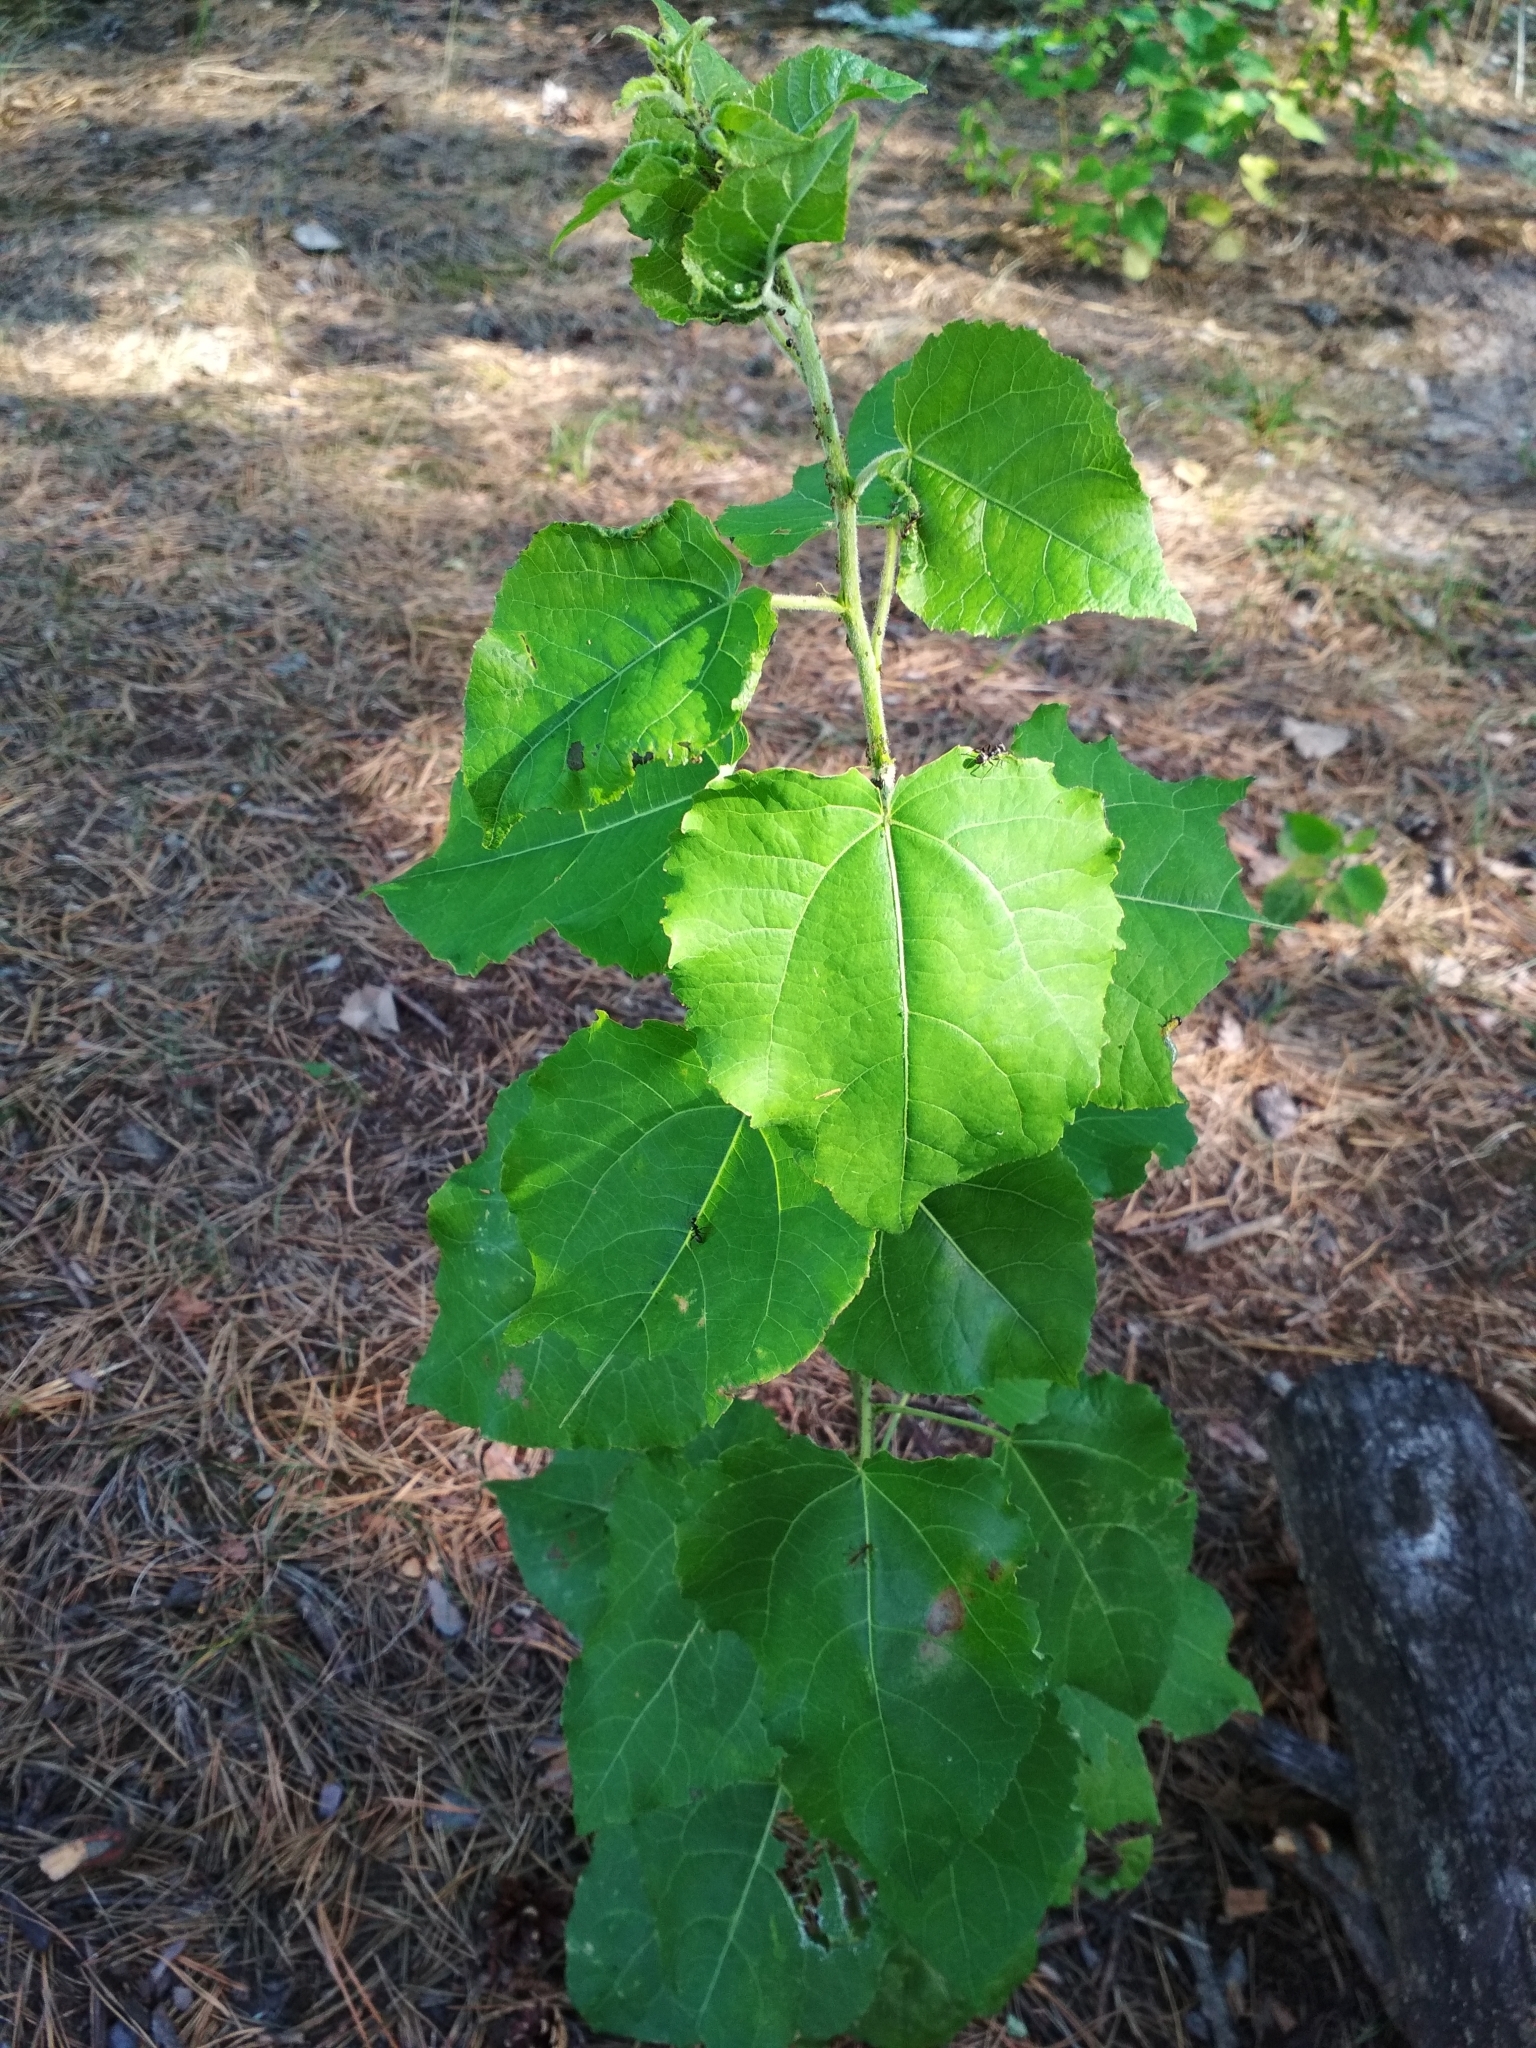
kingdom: Plantae
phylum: Tracheophyta
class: Magnoliopsida
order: Malpighiales
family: Salicaceae
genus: Populus
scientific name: Populus tremula
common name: European aspen
